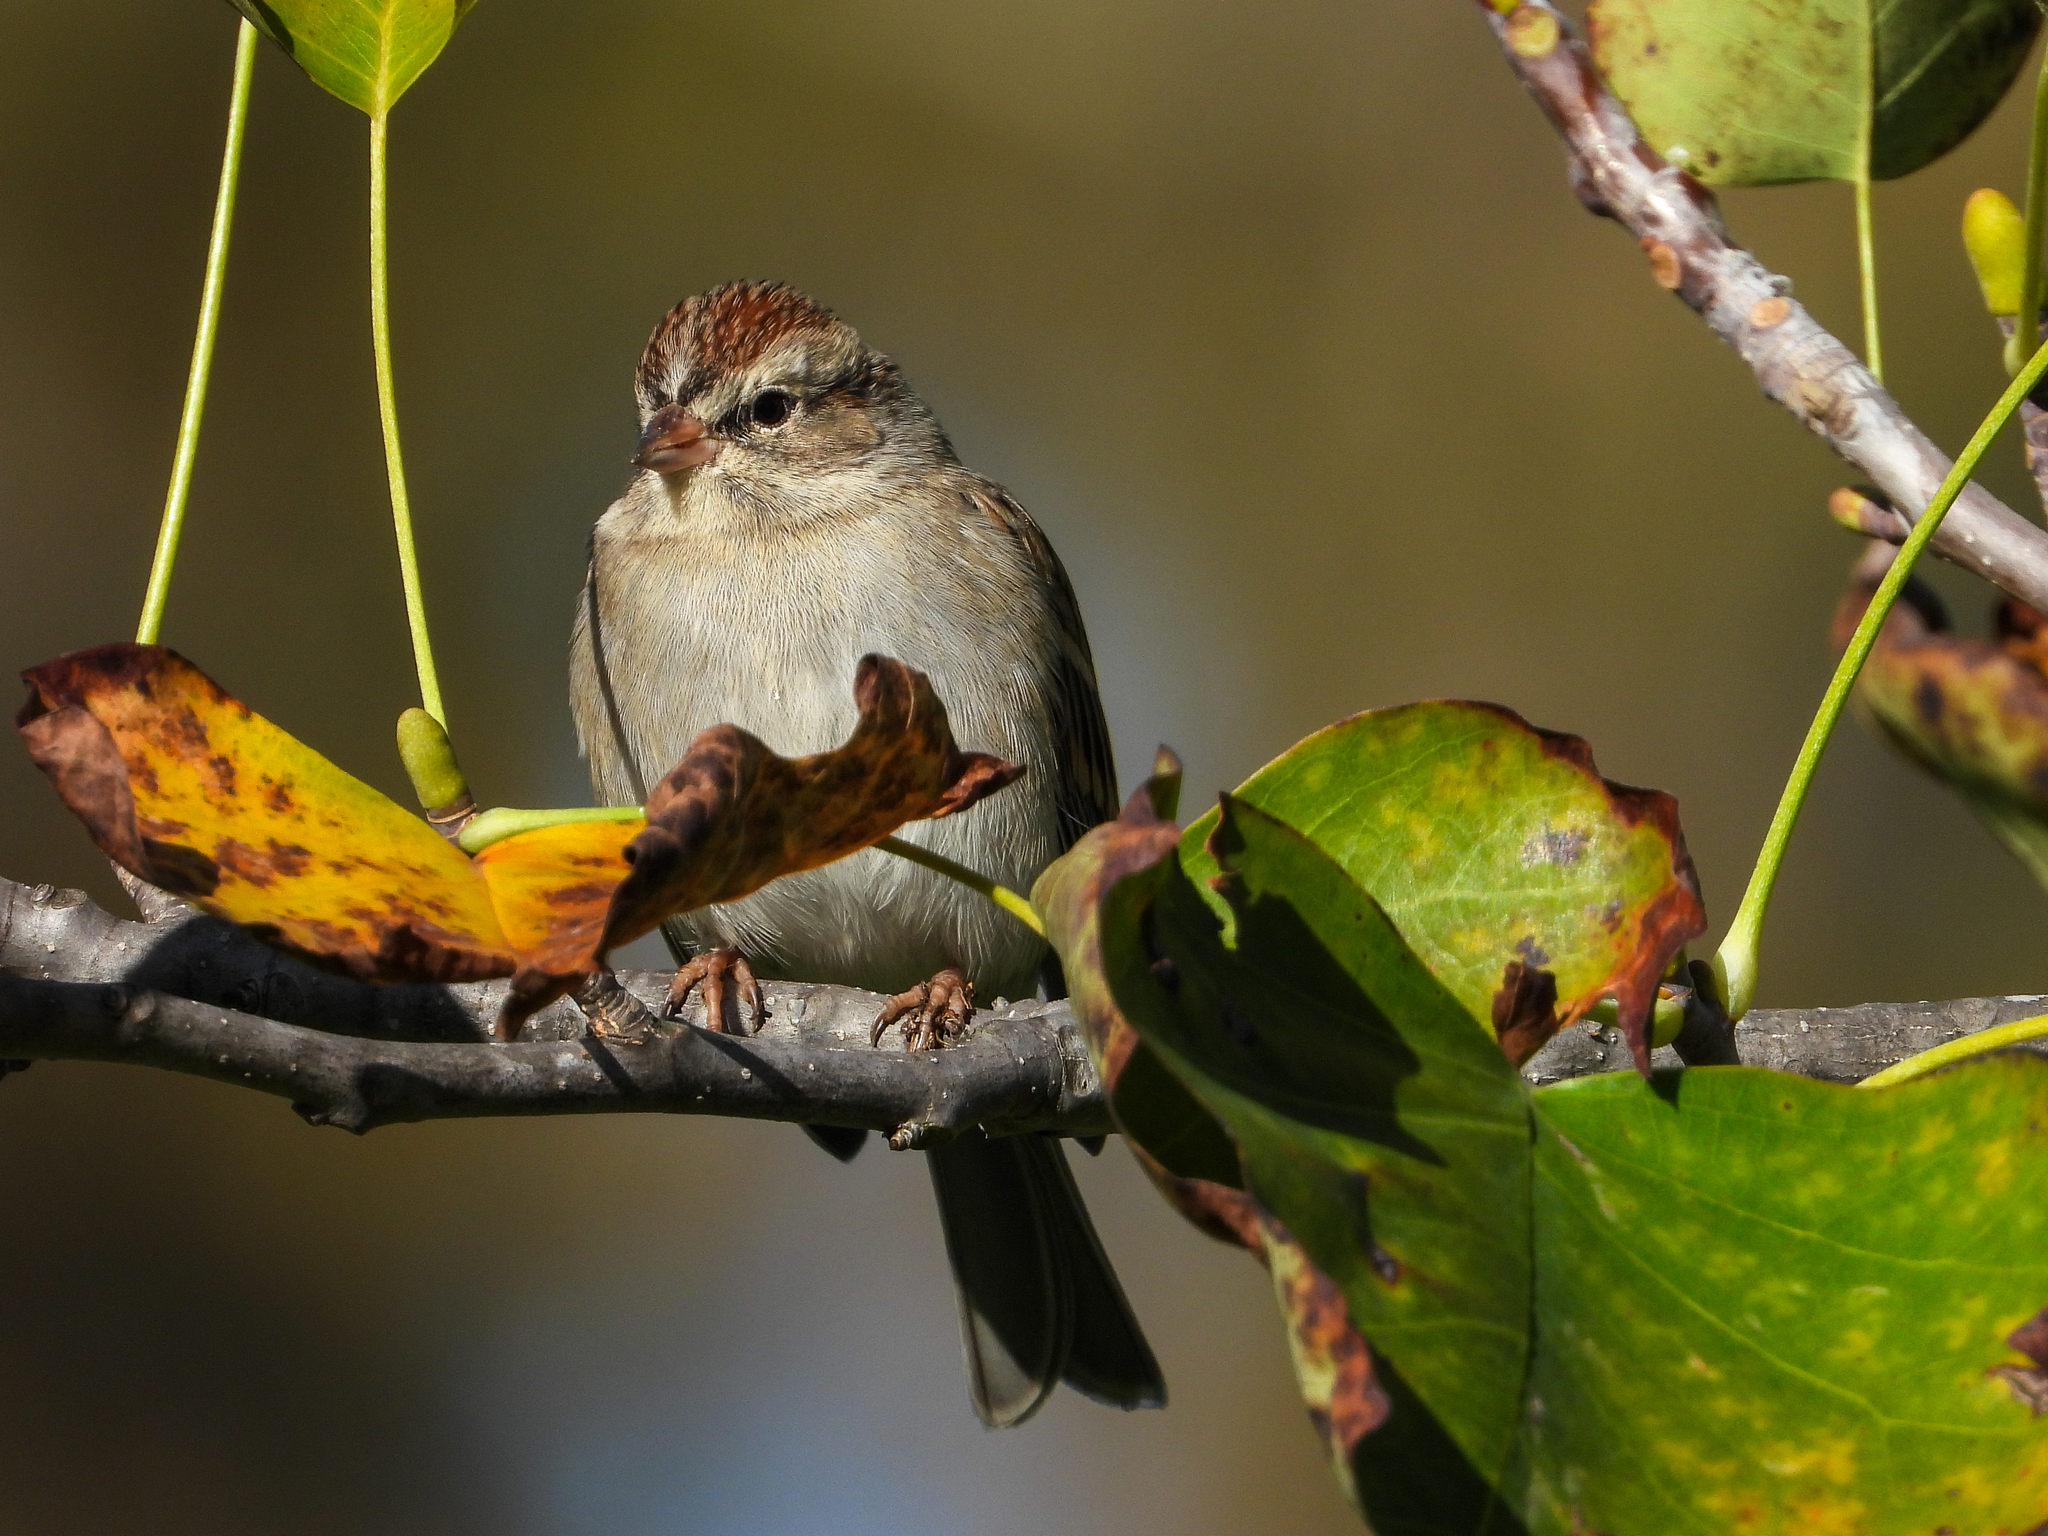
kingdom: Animalia
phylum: Chordata
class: Aves
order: Passeriformes
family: Passerellidae
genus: Spizella
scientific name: Spizella passerina
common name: Chipping sparrow
